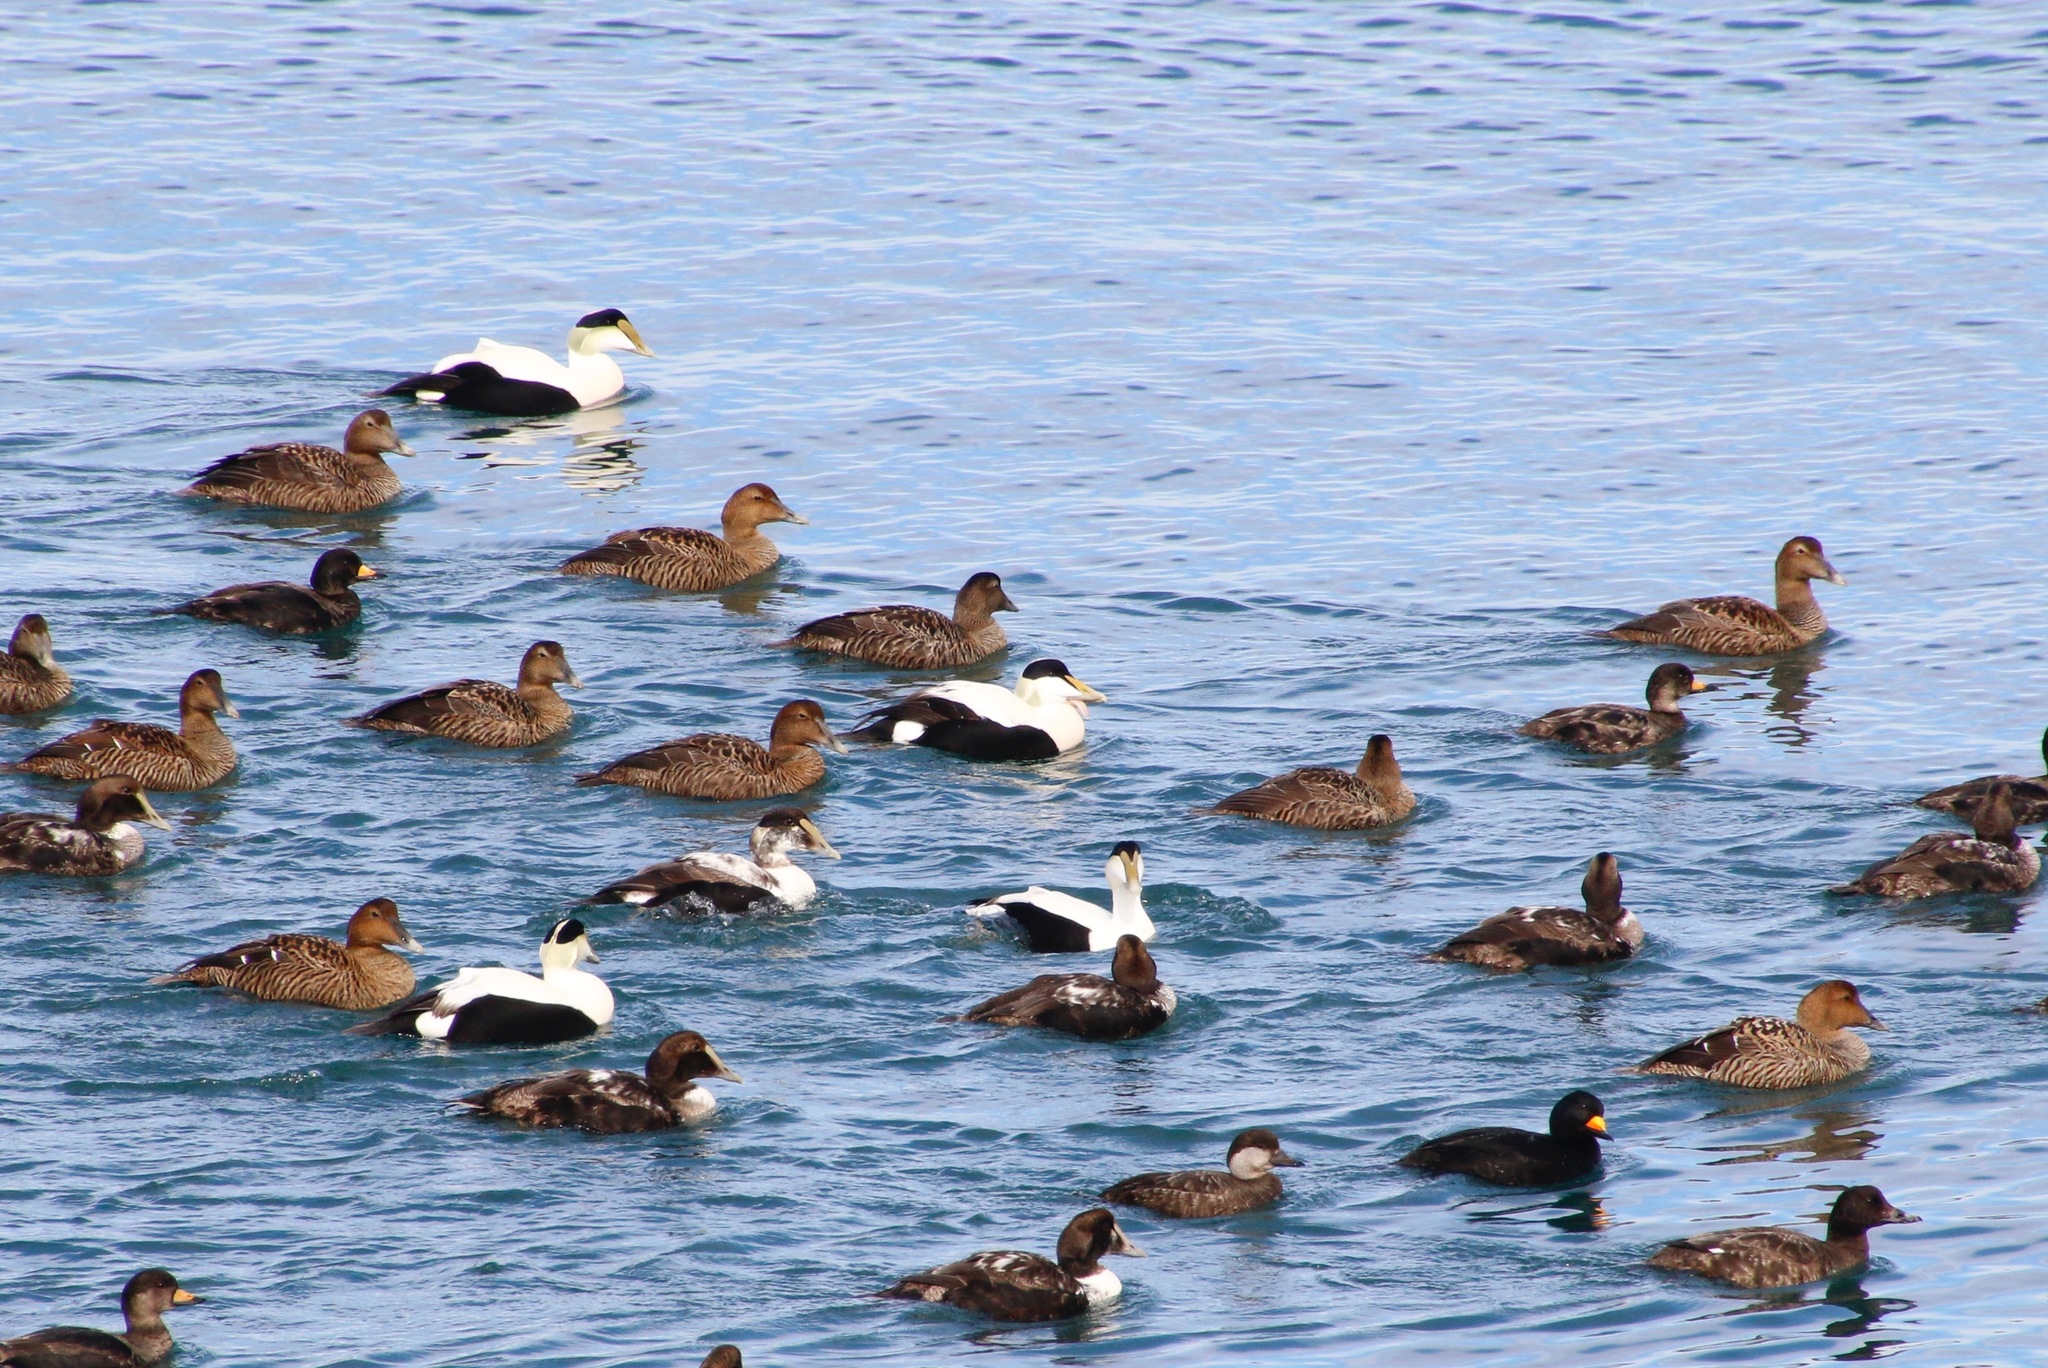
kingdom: Animalia
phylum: Chordata
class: Aves
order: Anseriformes
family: Anatidae
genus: Somateria
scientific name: Somateria mollissima
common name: Common eider
